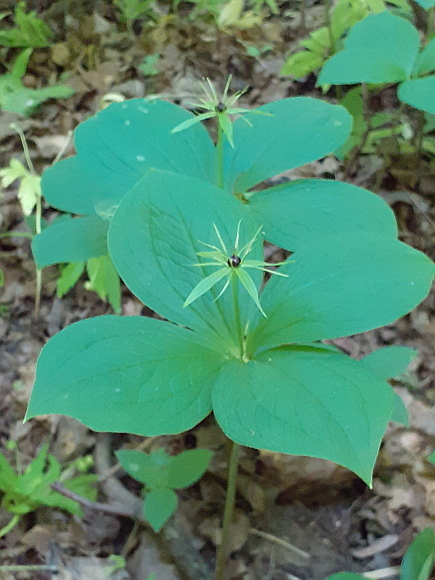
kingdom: Plantae
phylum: Tracheophyta
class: Liliopsida
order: Liliales
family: Melanthiaceae
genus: Paris
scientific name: Paris quadrifolia
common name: Herb-paris
